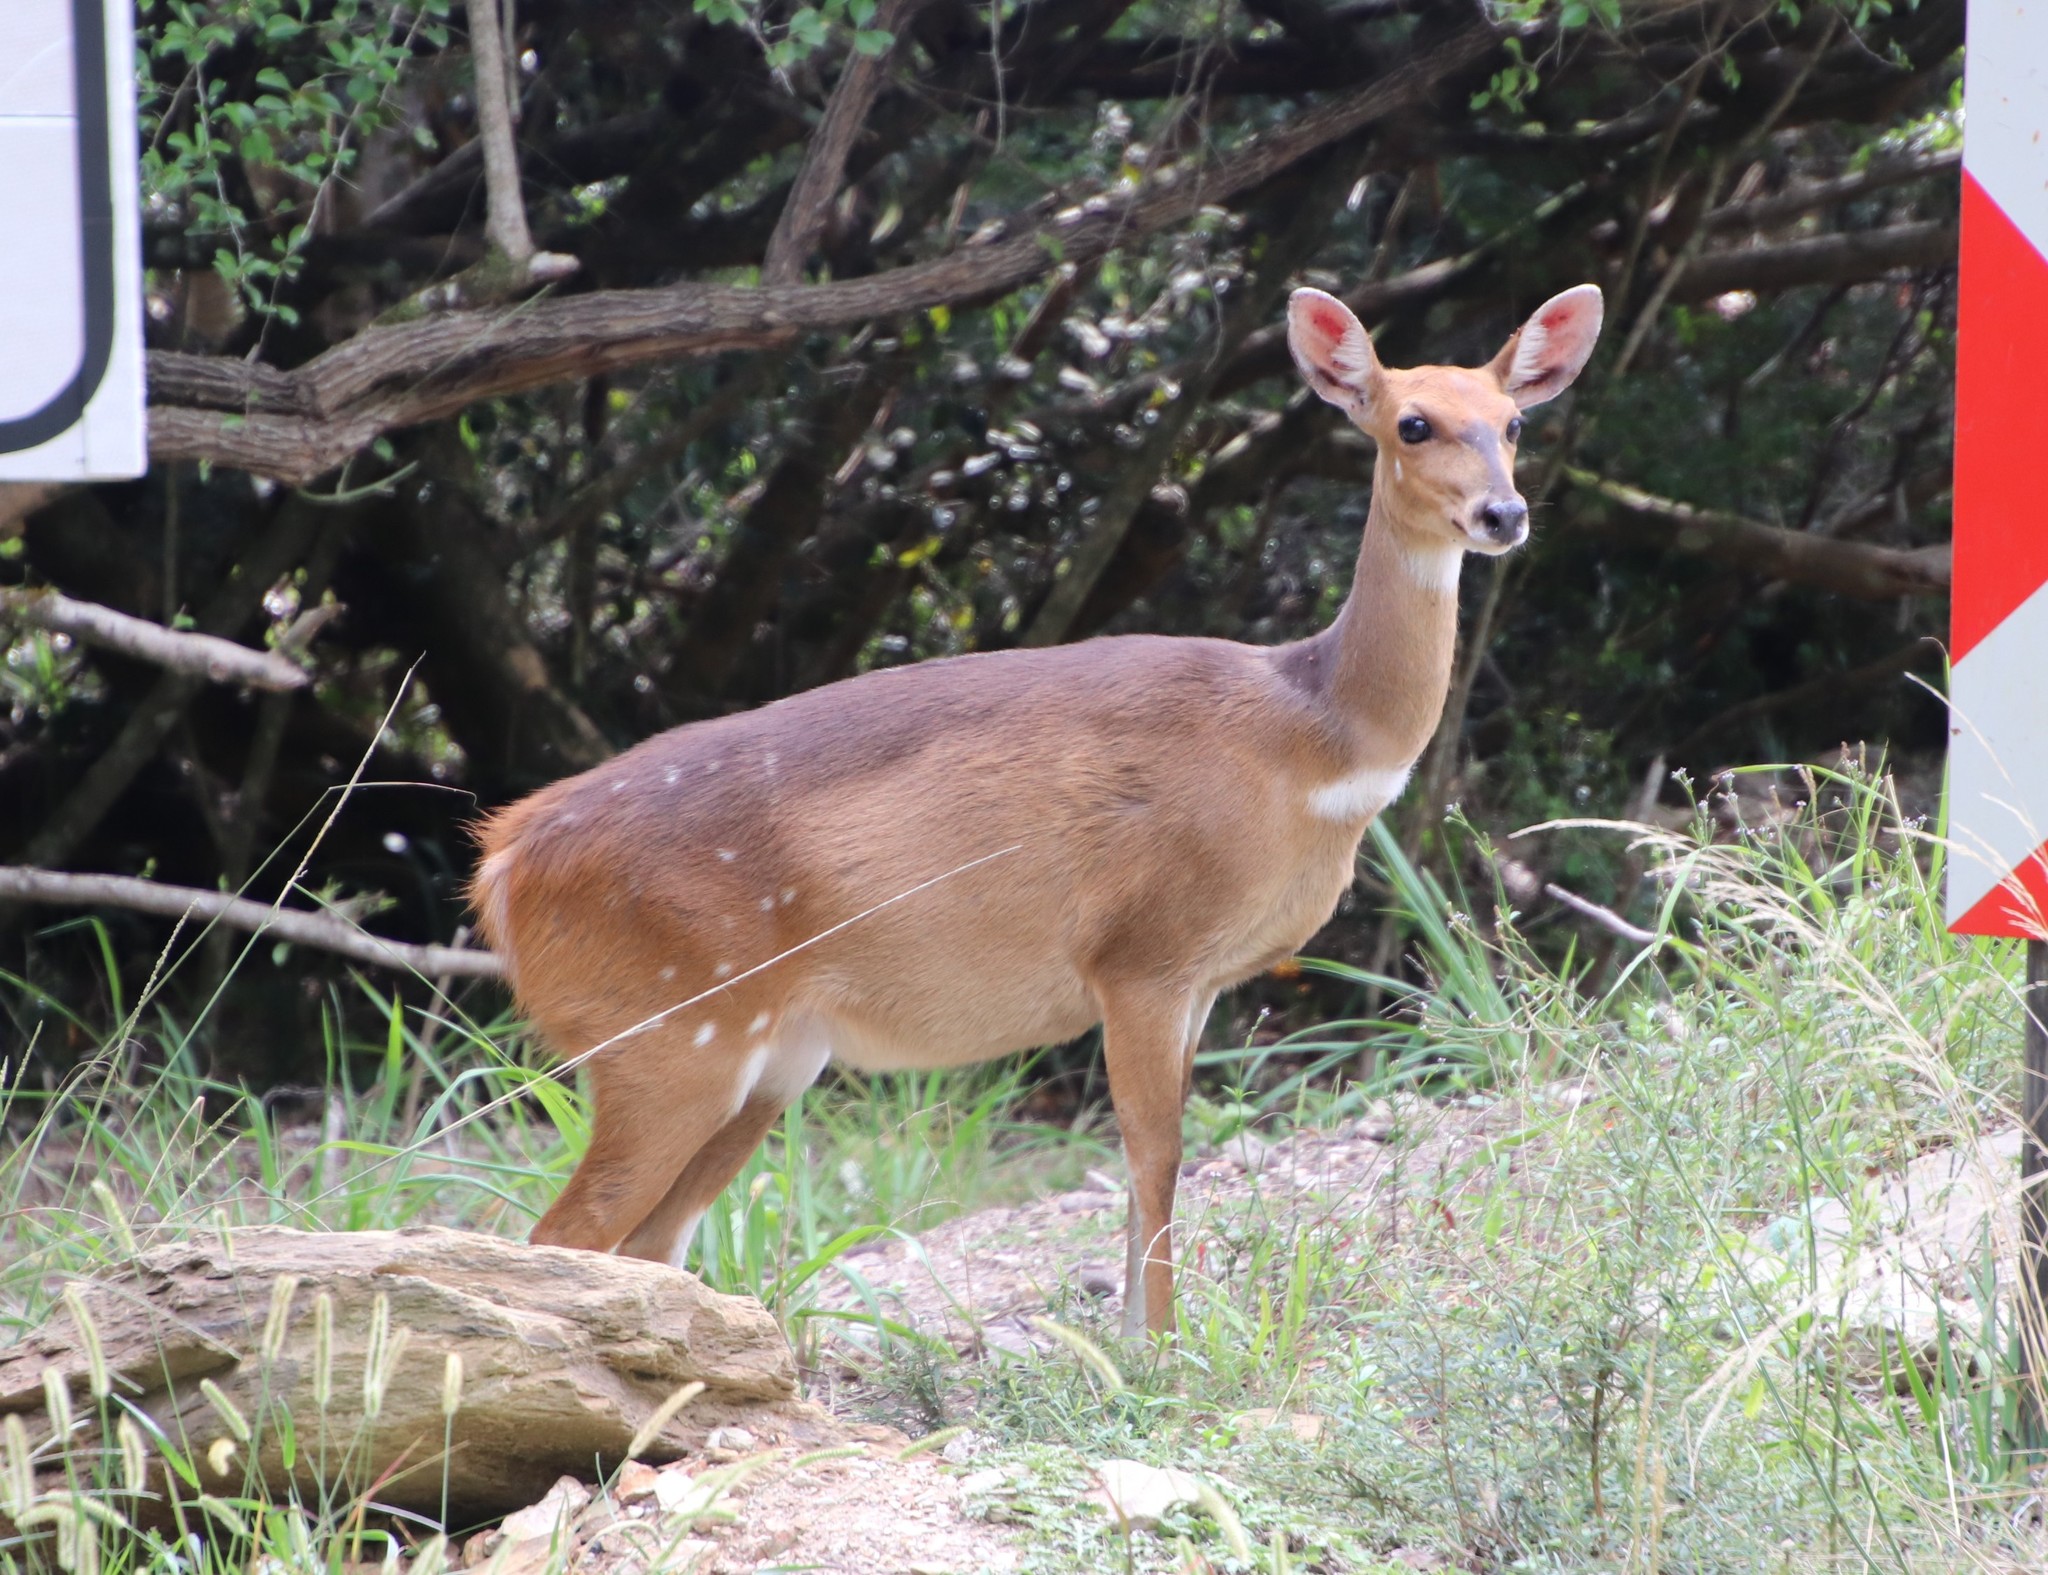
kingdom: Animalia
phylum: Chordata
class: Mammalia
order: Artiodactyla
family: Bovidae
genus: Tragelaphus
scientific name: Tragelaphus scriptus
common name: Bushbuck
